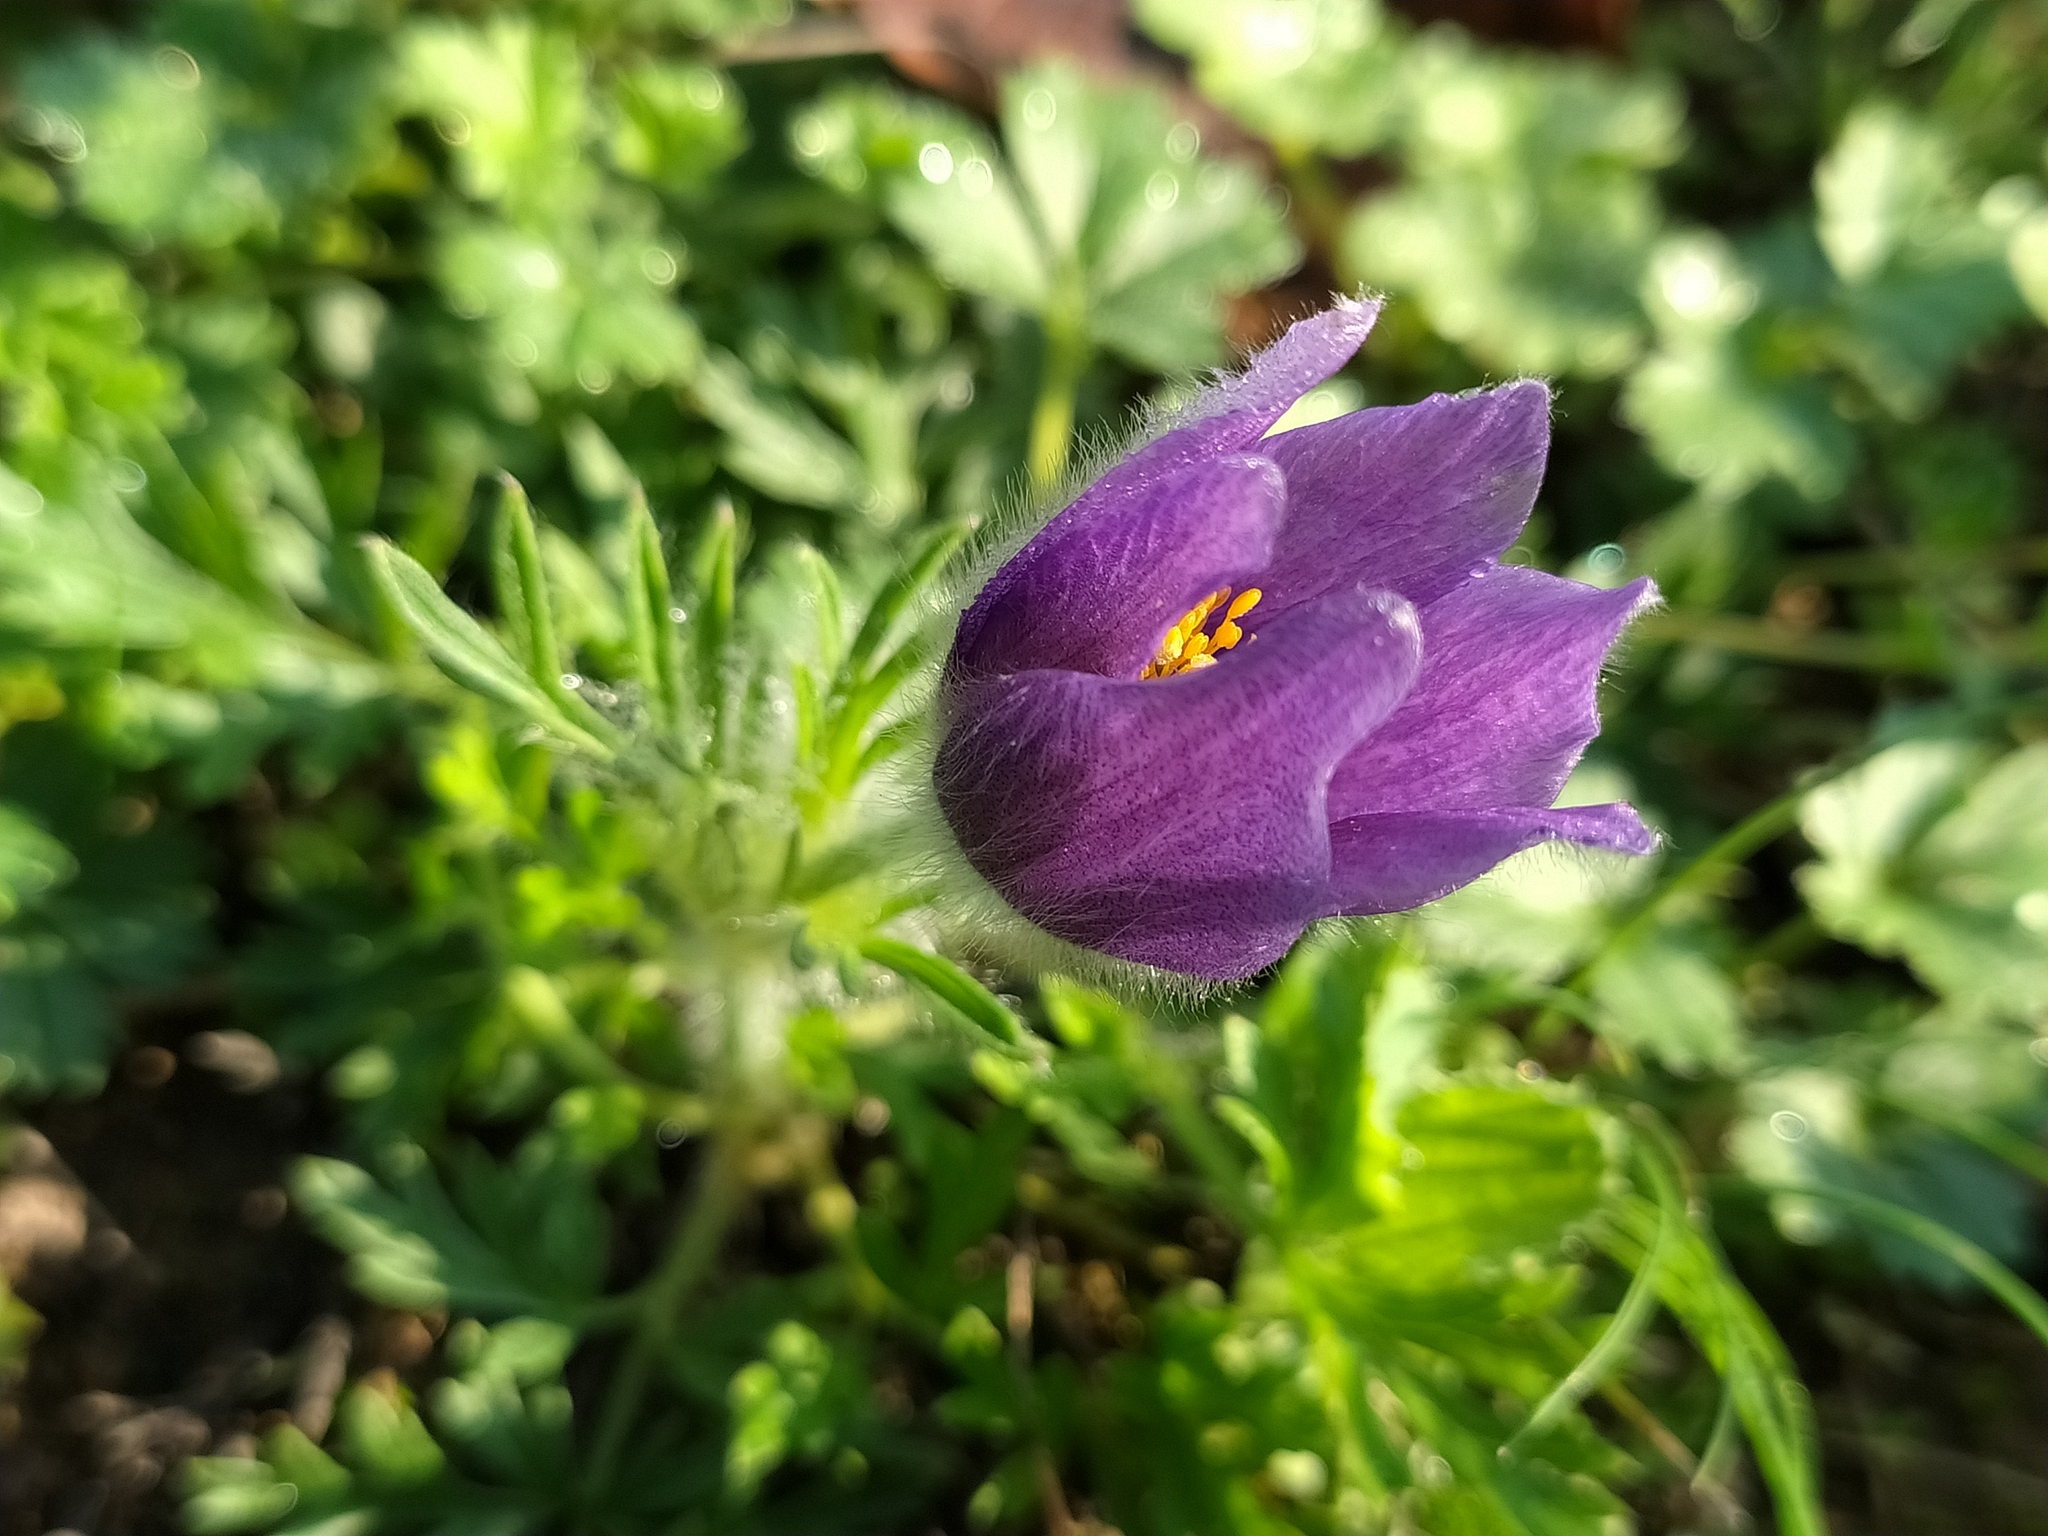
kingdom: Plantae
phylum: Tracheophyta
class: Magnoliopsida
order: Ranunculales
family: Ranunculaceae
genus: Pulsatilla
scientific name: Pulsatilla vulgaris
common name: Pasqueflower
